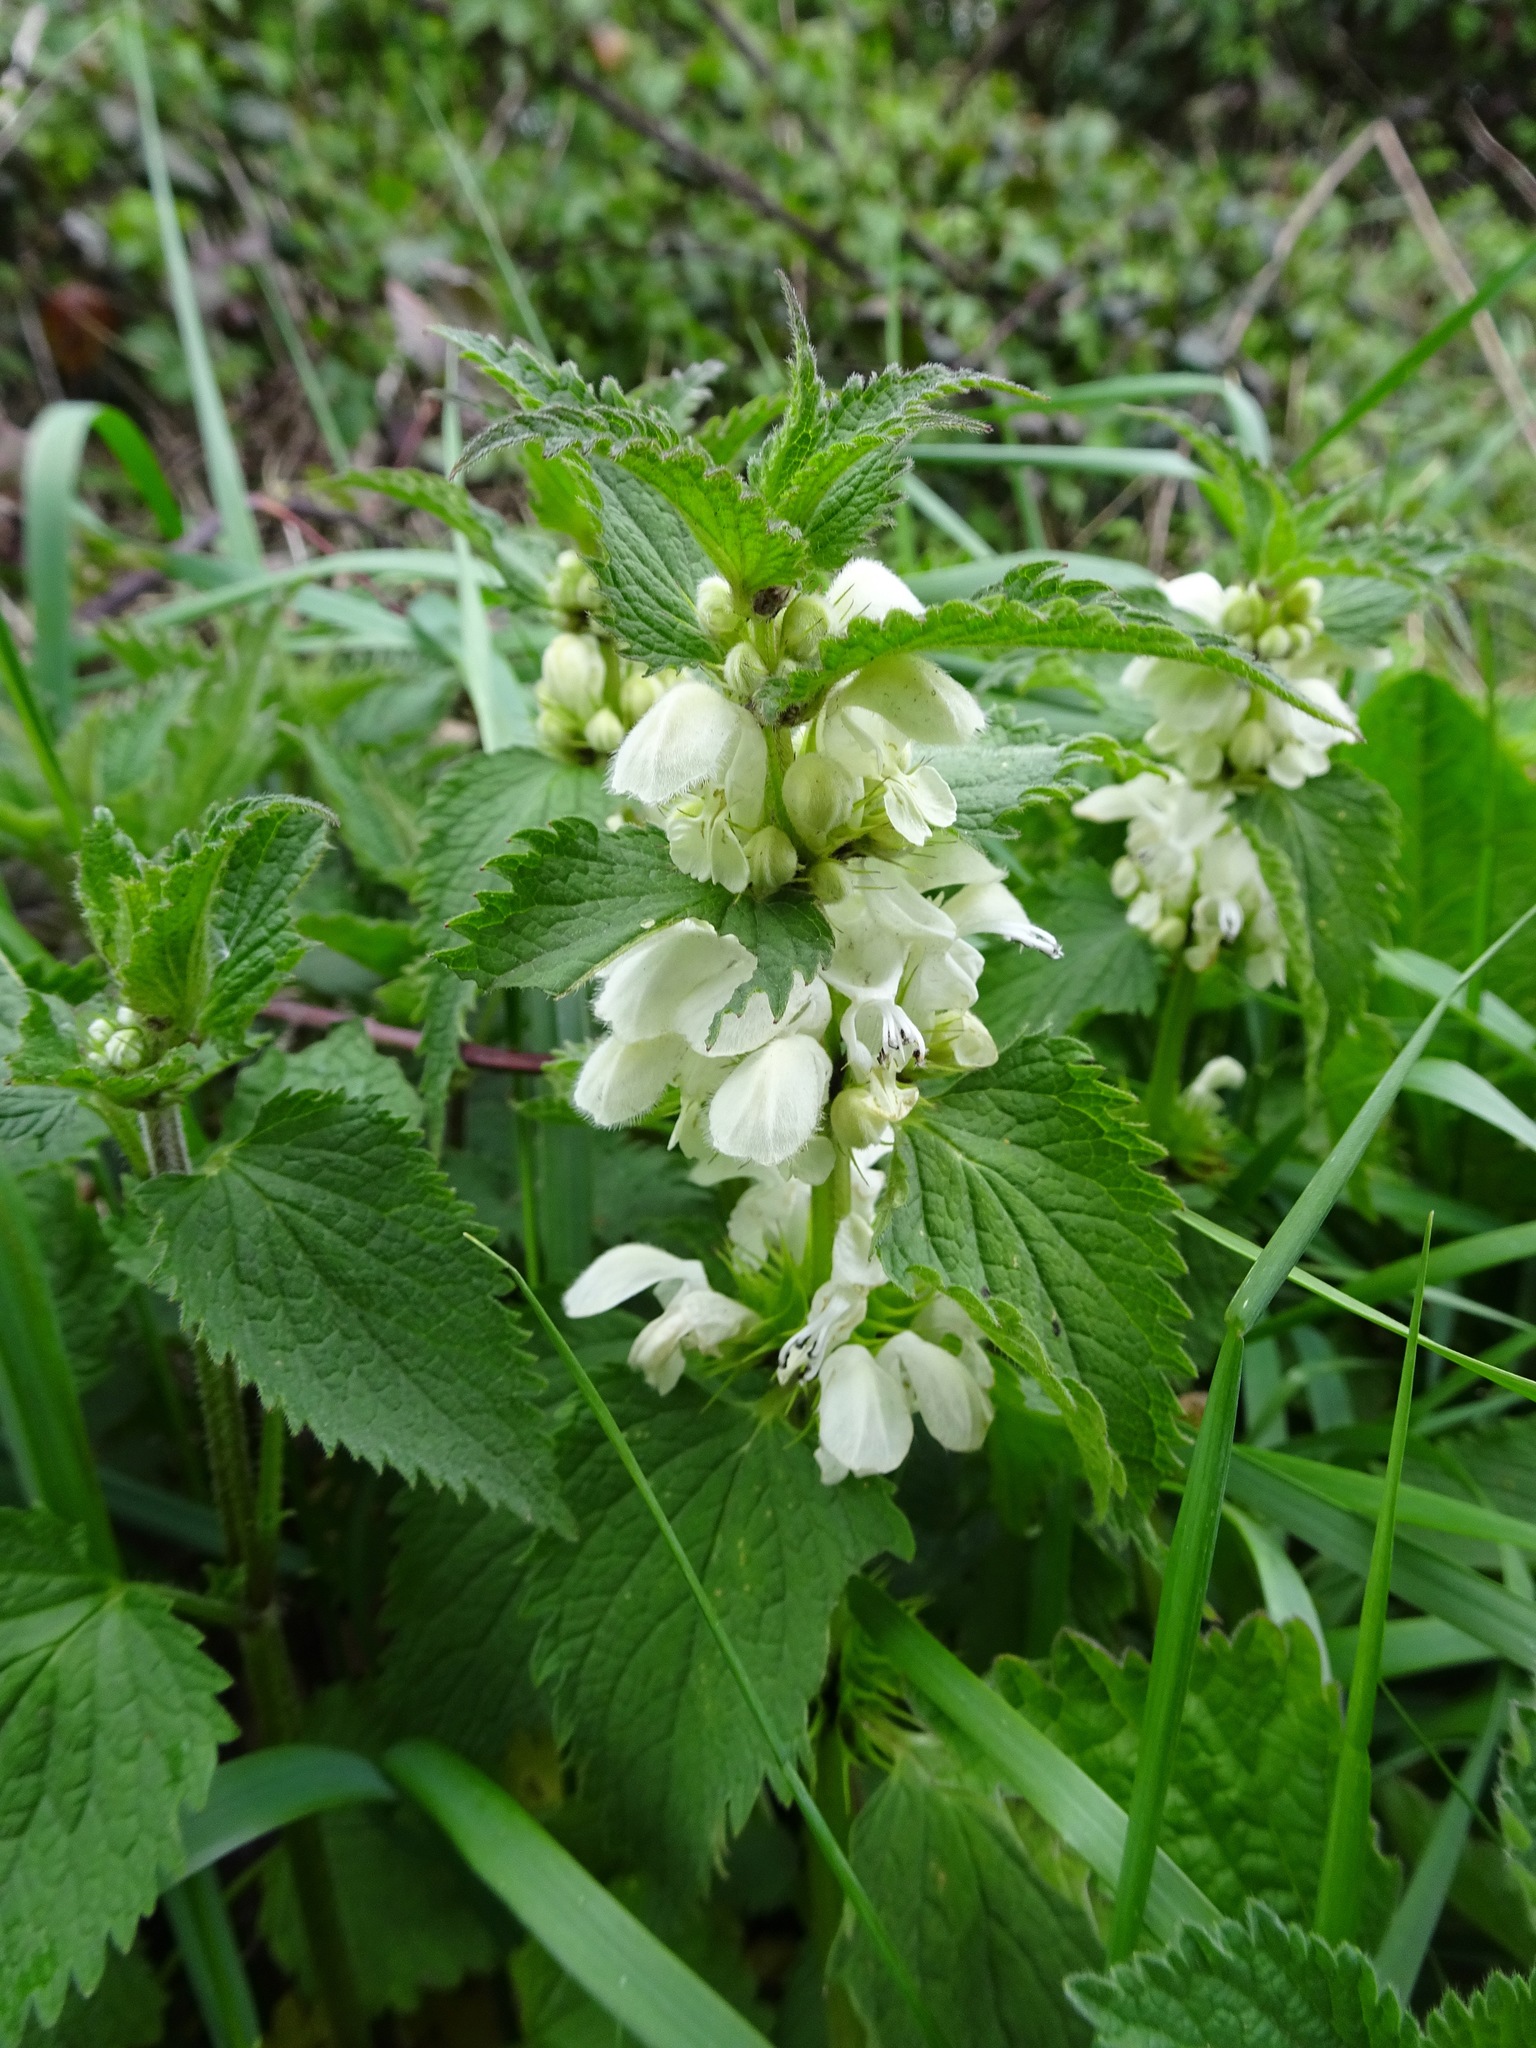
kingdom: Plantae
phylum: Tracheophyta
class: Magnoliopsida
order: Lamiales
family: Lamiaceae
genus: Lamium
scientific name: Lamium album
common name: White dead-nettle
